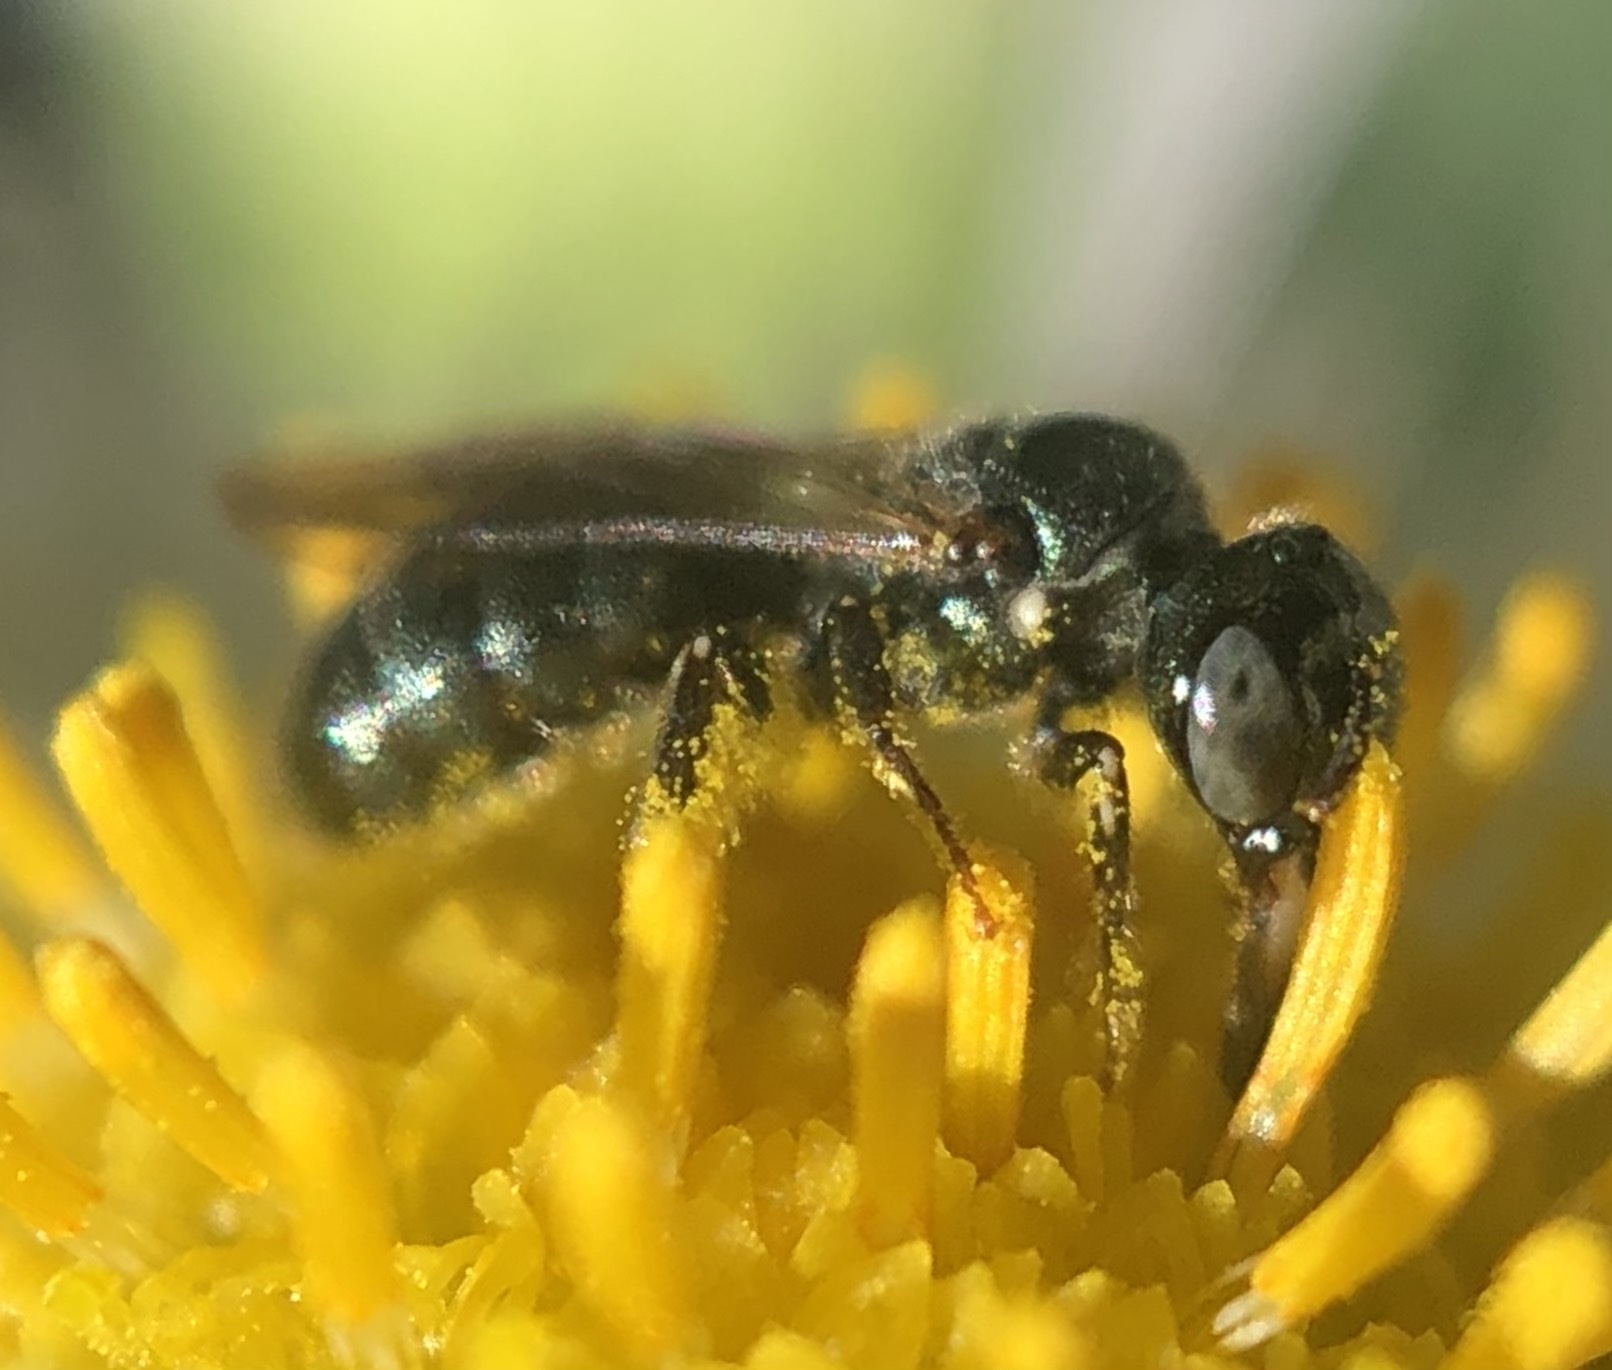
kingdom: Animalia
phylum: Arthropoda
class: Insecta
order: Hymenoptera
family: Apidae
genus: Ceratina
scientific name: Ceratina strenua
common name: Nimble carpenter bee
